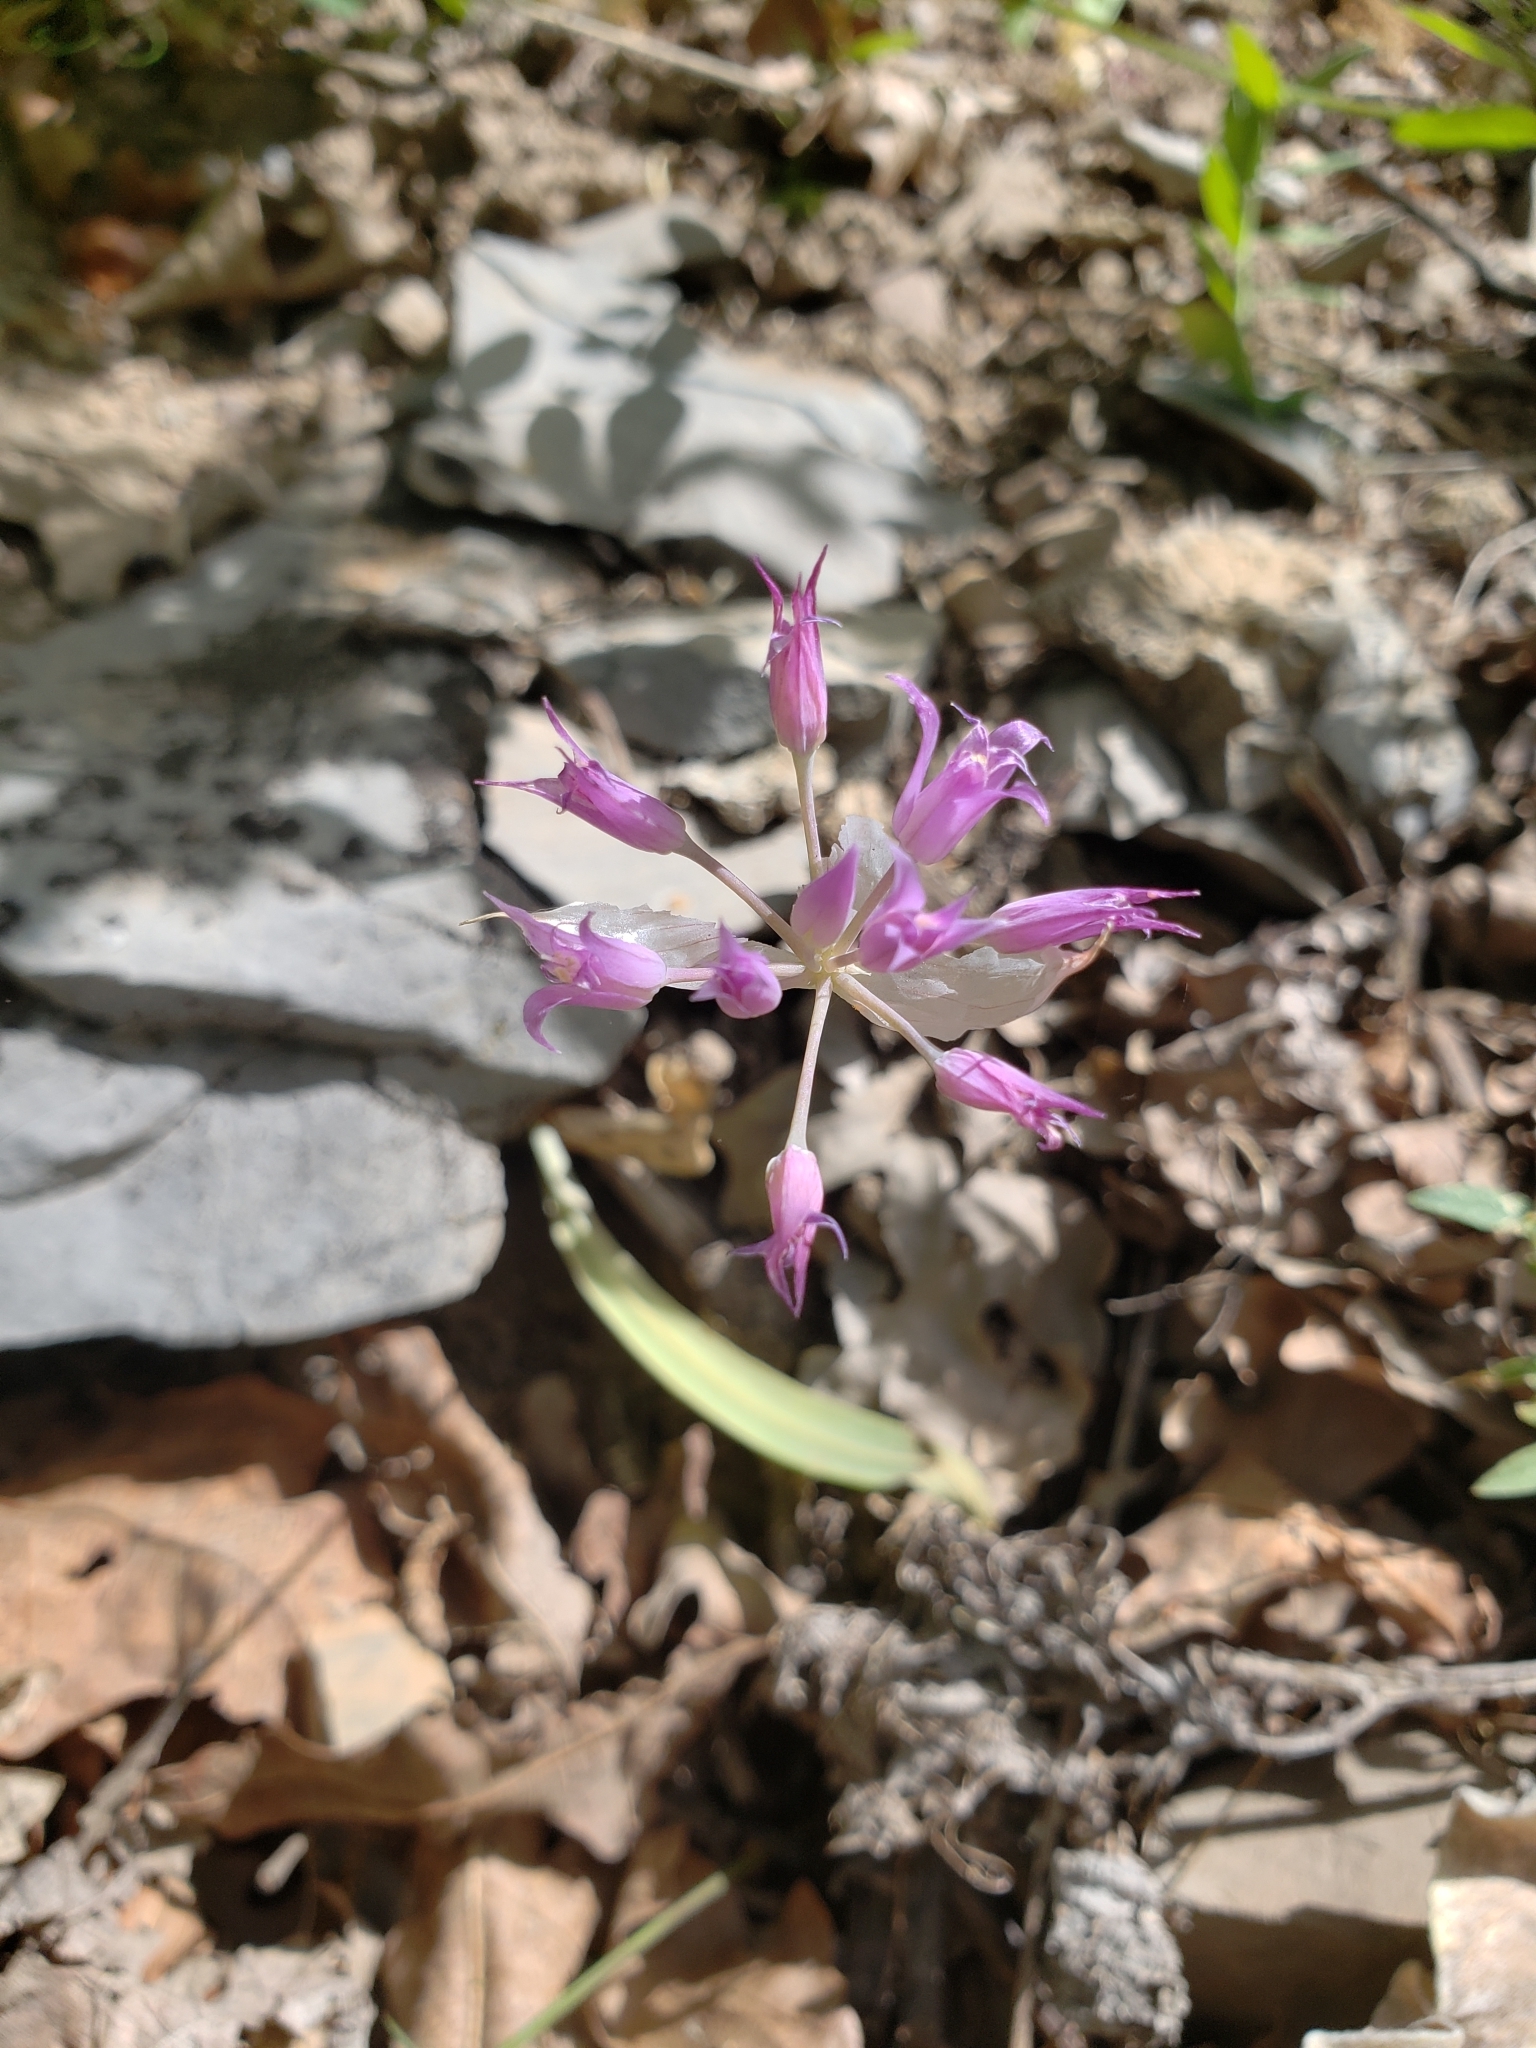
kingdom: Plantae
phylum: Tracheophyta
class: Liliopsida
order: Asparagales
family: Amaryllidaceae
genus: Allium
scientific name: Allium acuminatum
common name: Hooker's onion
